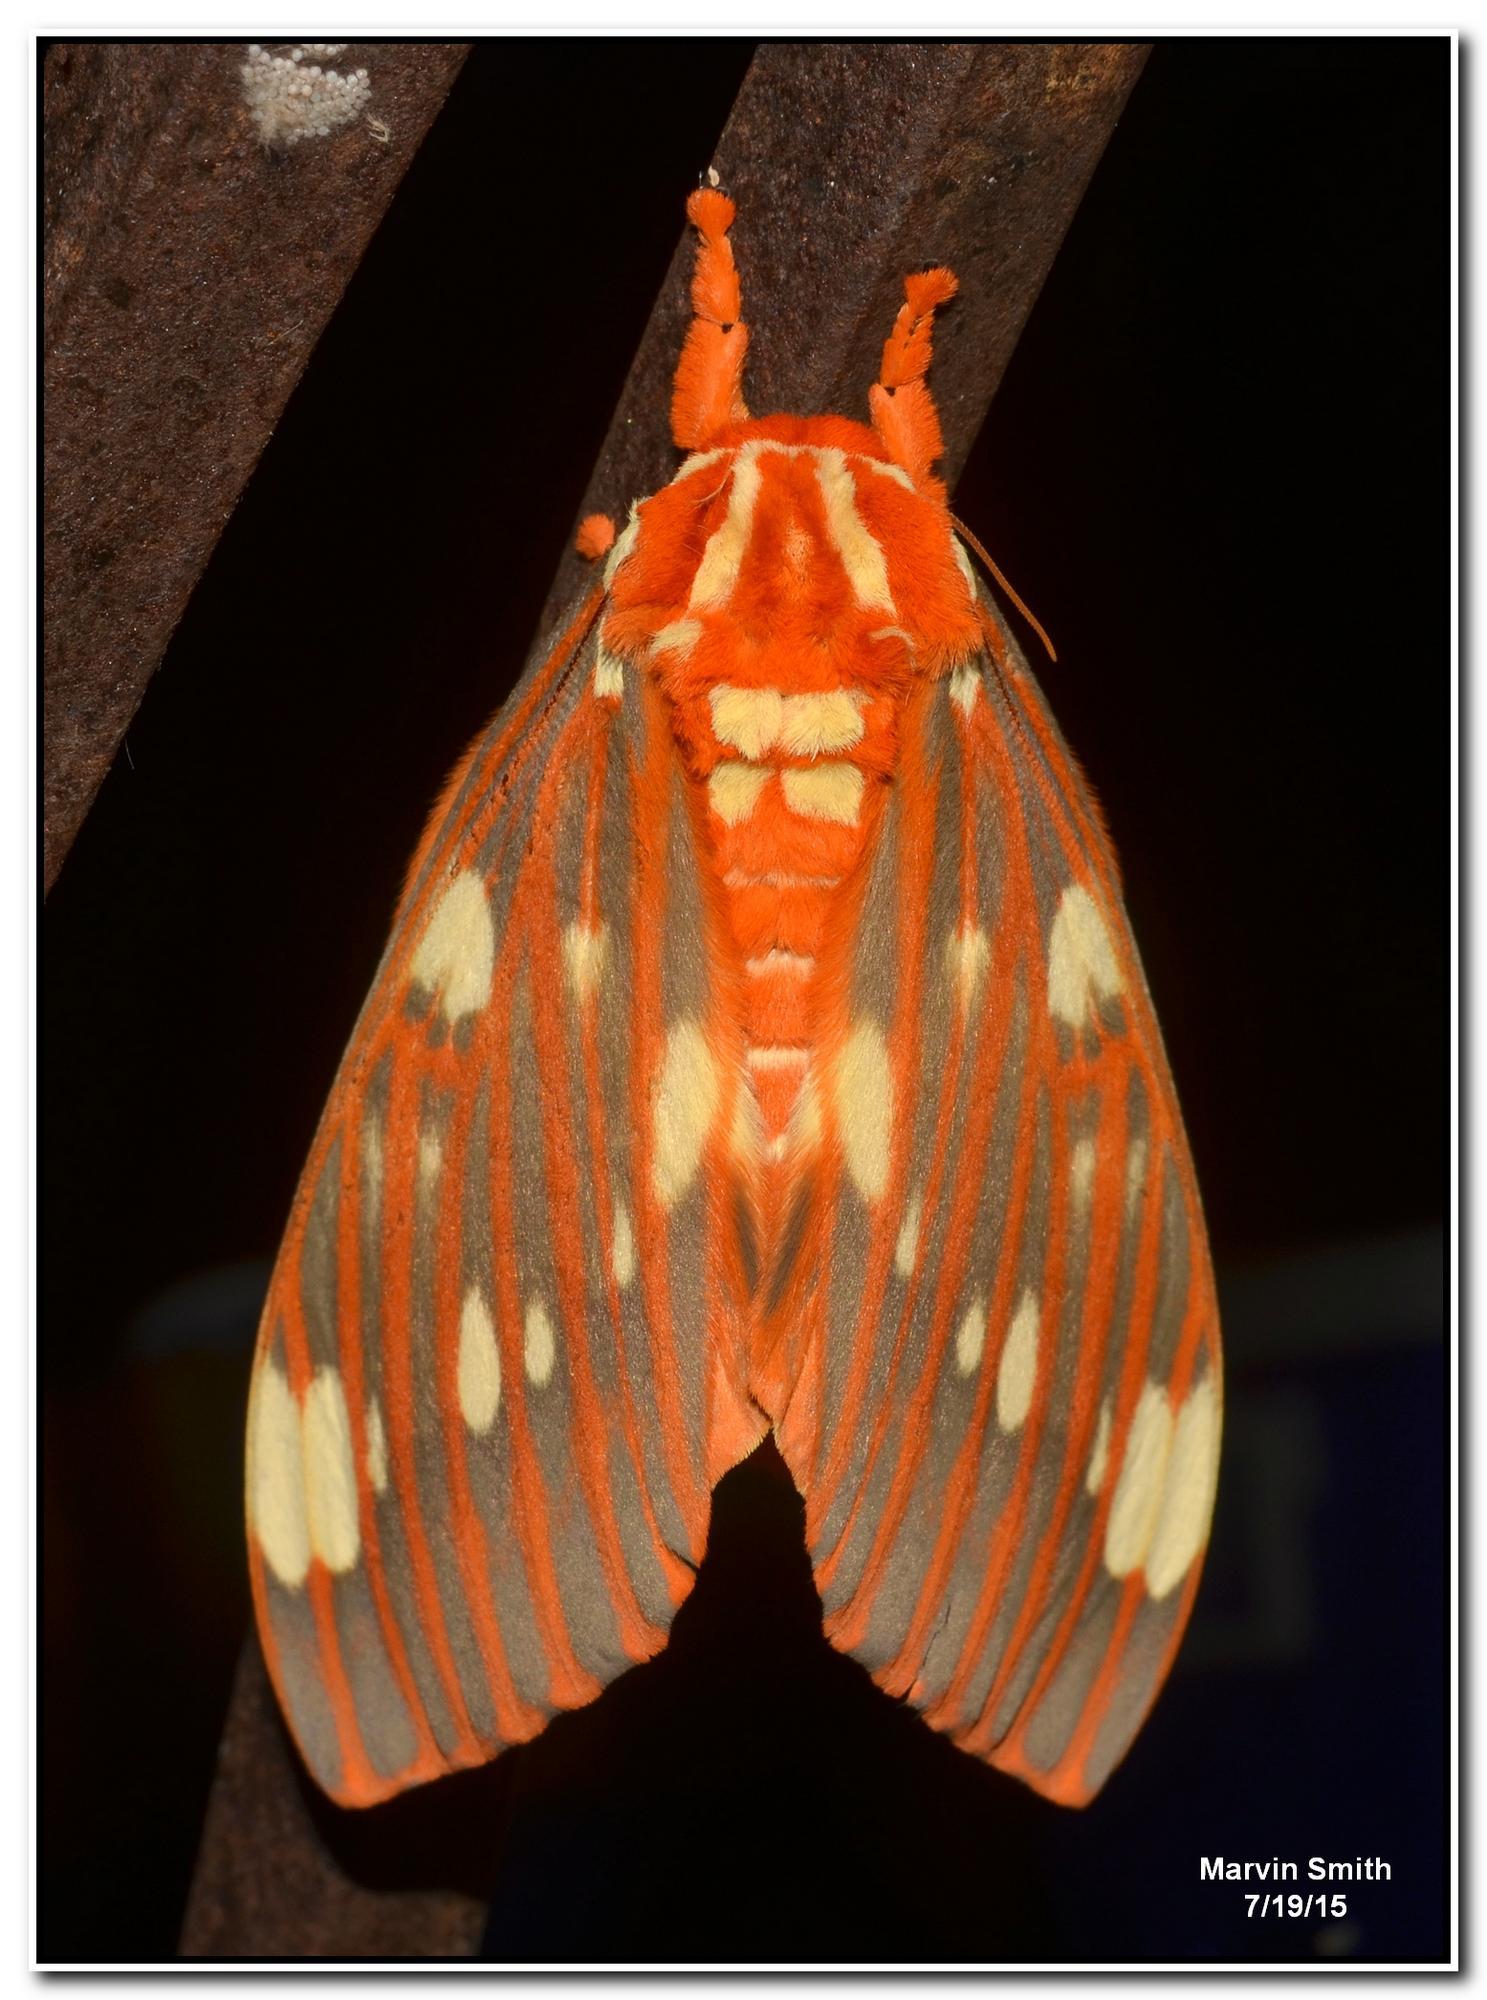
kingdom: Animalia
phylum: Arthropoda
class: Insecta
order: Lepidoptera
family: Saturniidae
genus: Citheronia
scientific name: Citheronia regalis
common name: Hickory horned devil
